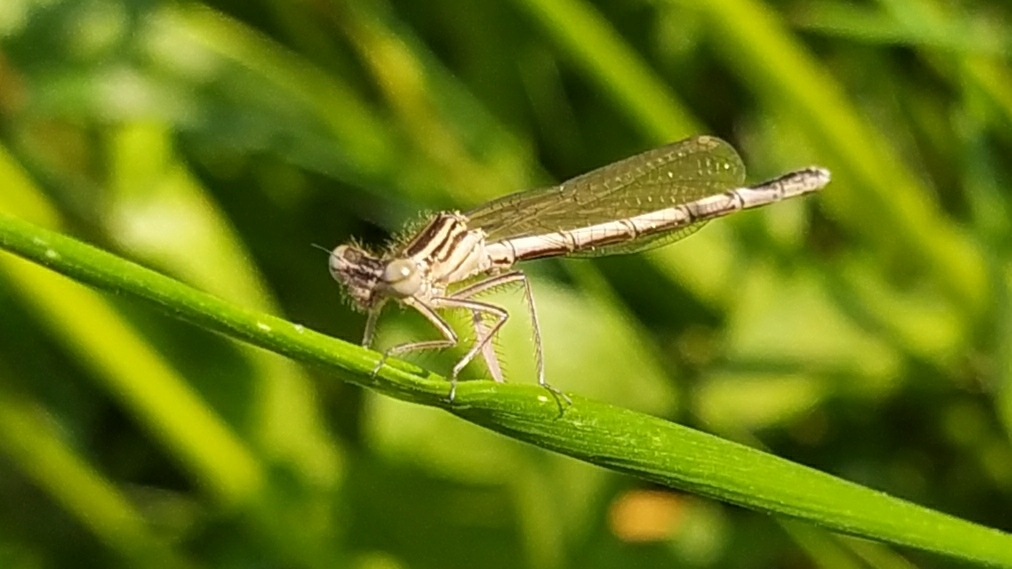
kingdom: Animalia
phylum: Arthropoda
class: Insecta
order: Odonata
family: Platycnemididae
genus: Platycnemis
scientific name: Platycnemis pennipes
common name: White-legged damselfly
